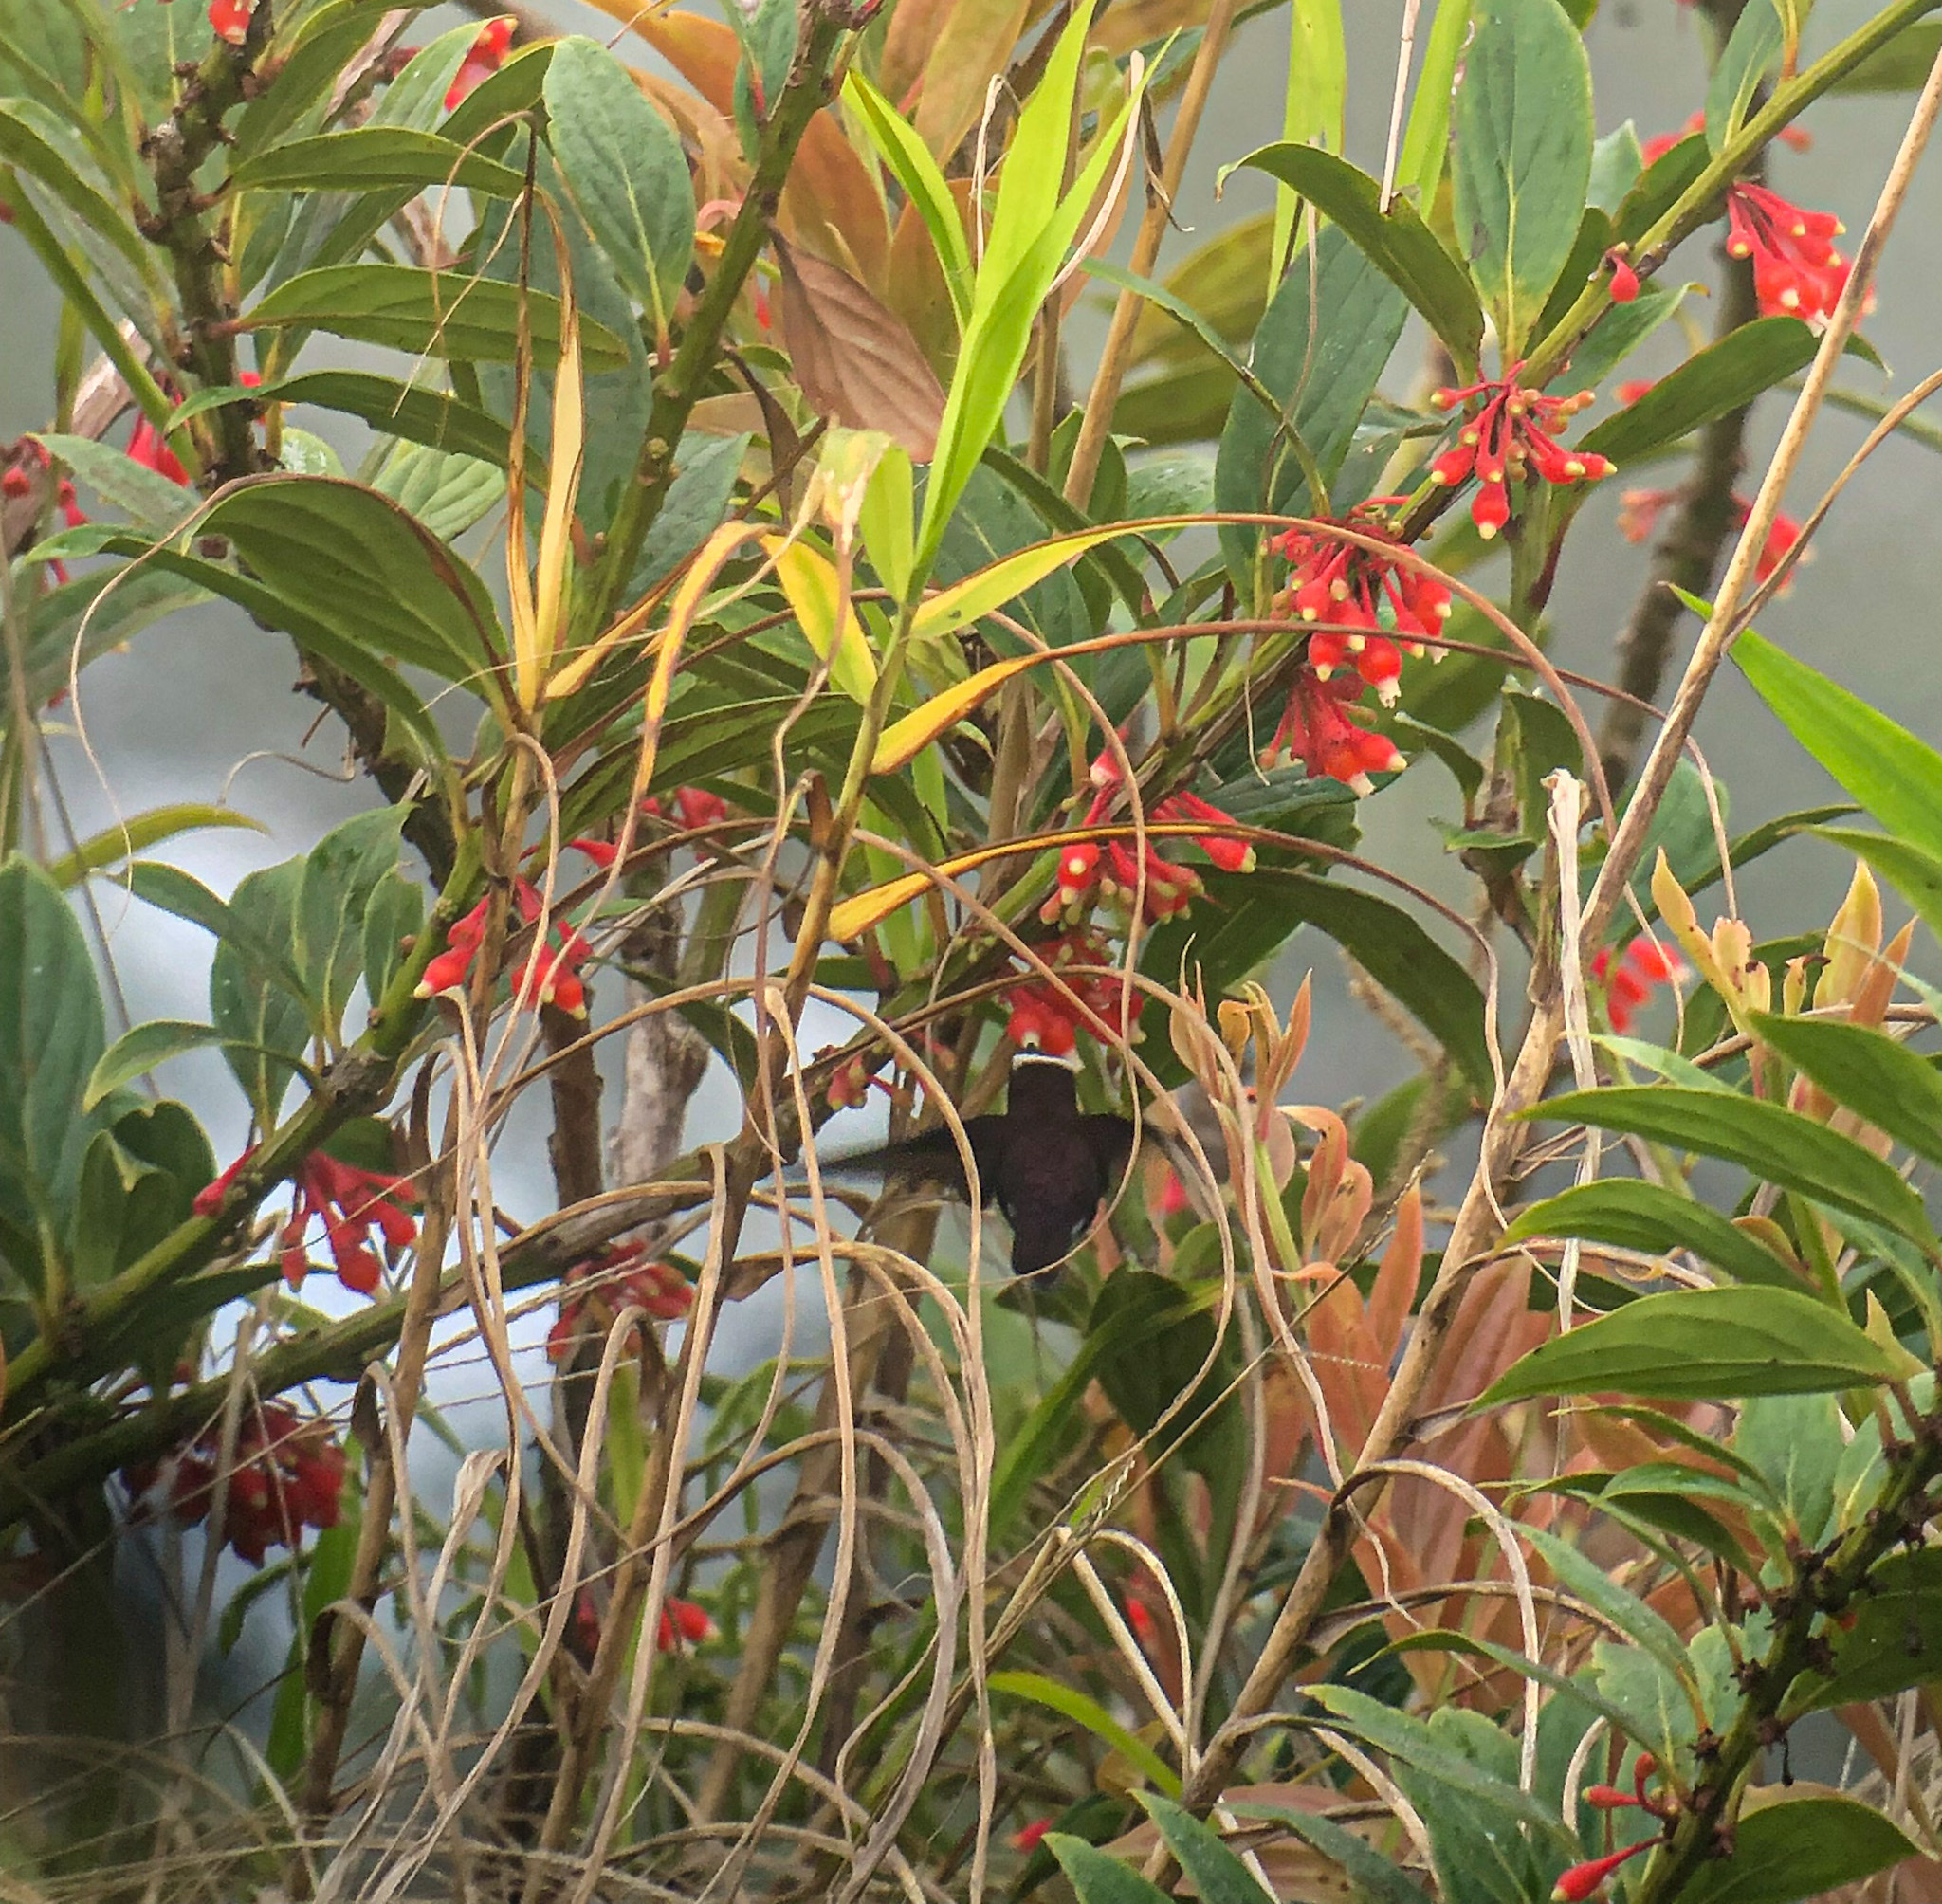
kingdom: Animalia
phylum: Chordata
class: Aves
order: Apodiformes
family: Trochilidae
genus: Microchera
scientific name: Microchera albocoronata
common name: Snowcap
